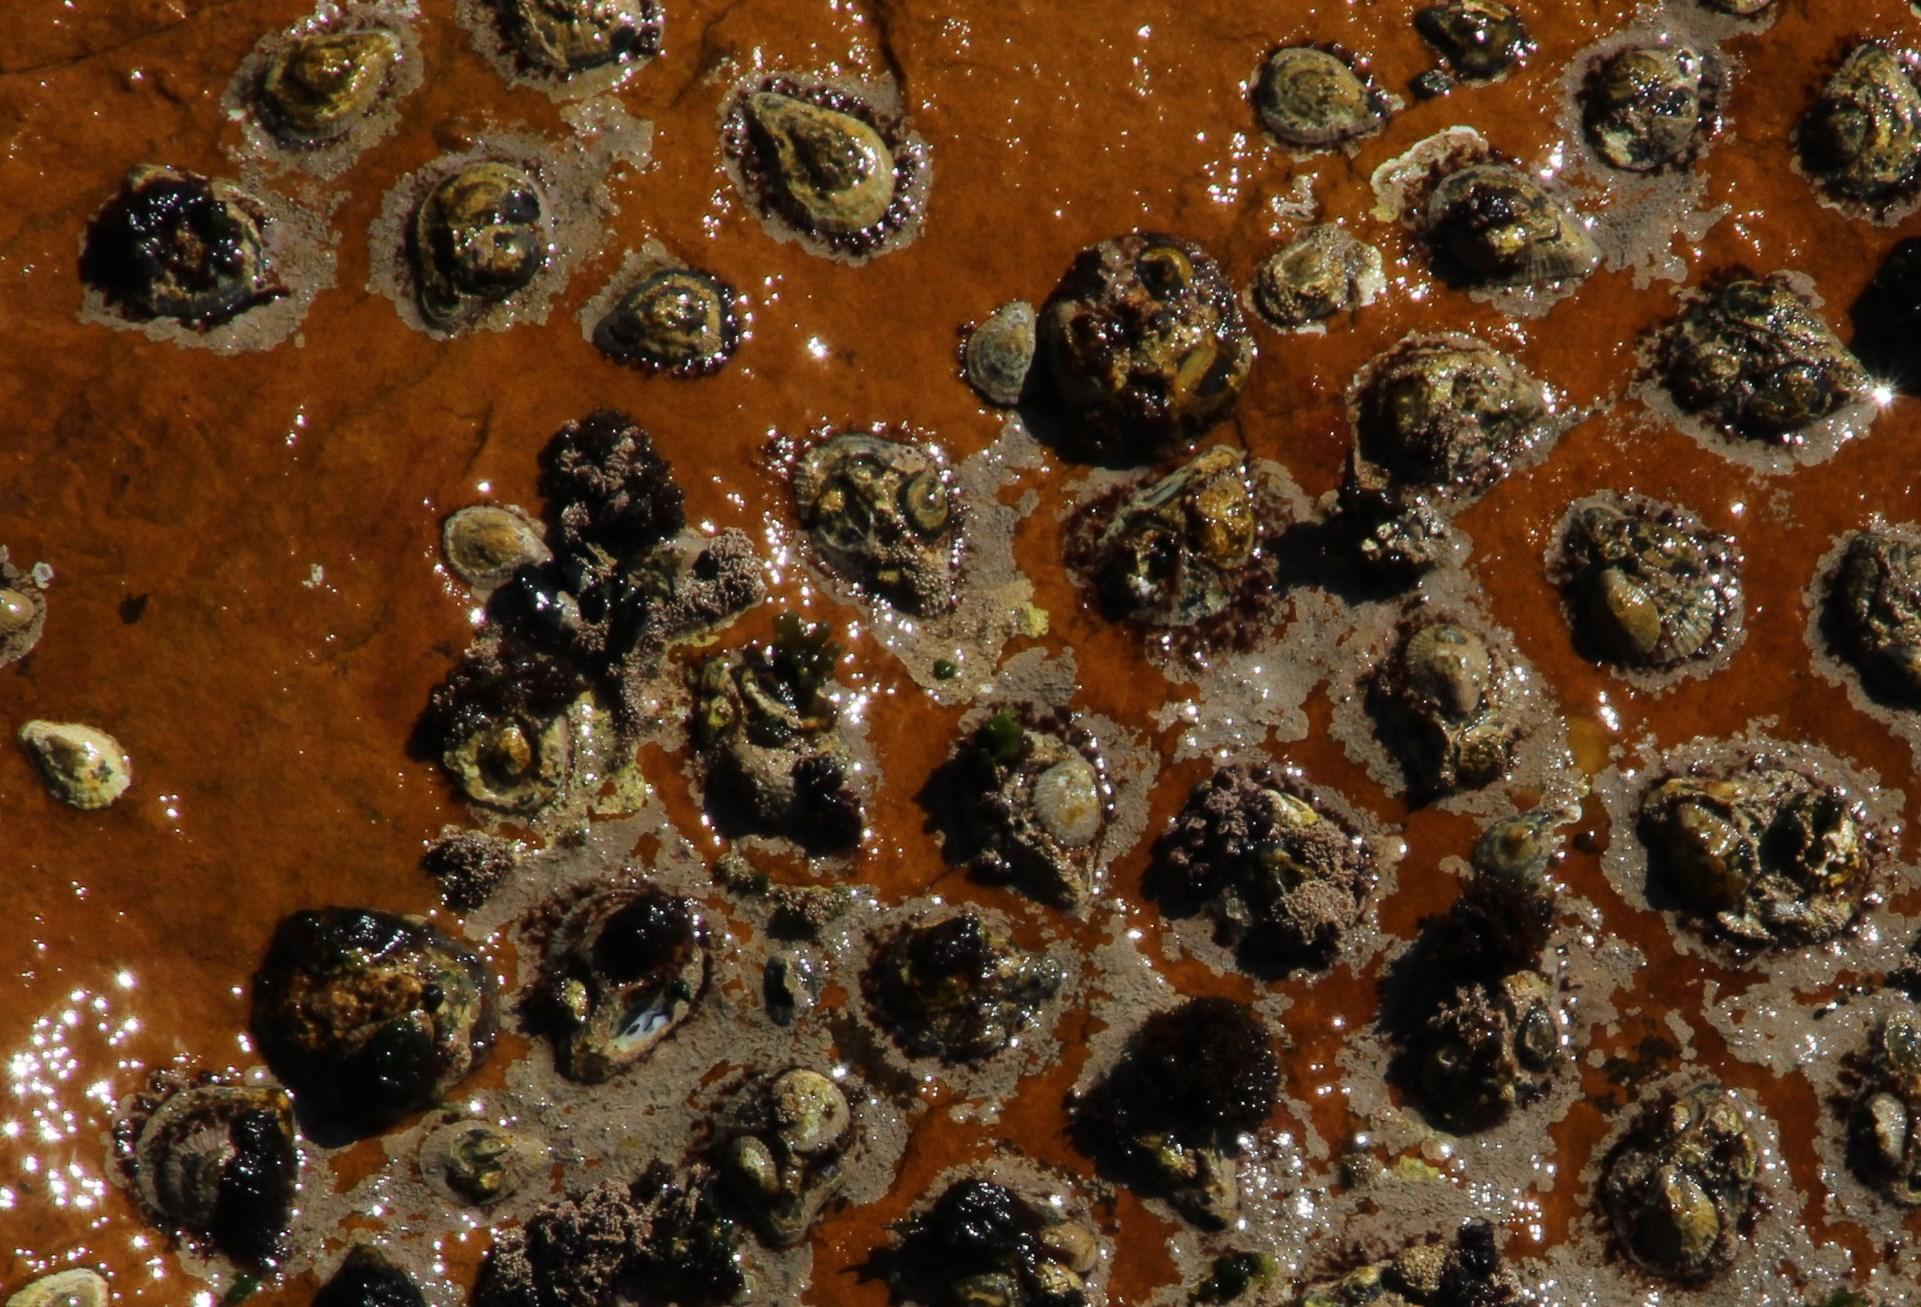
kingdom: Animalia
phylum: Mollusca
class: Gastropoda
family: Patellidae
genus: Scutellastra
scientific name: Scutellastra cochlear
